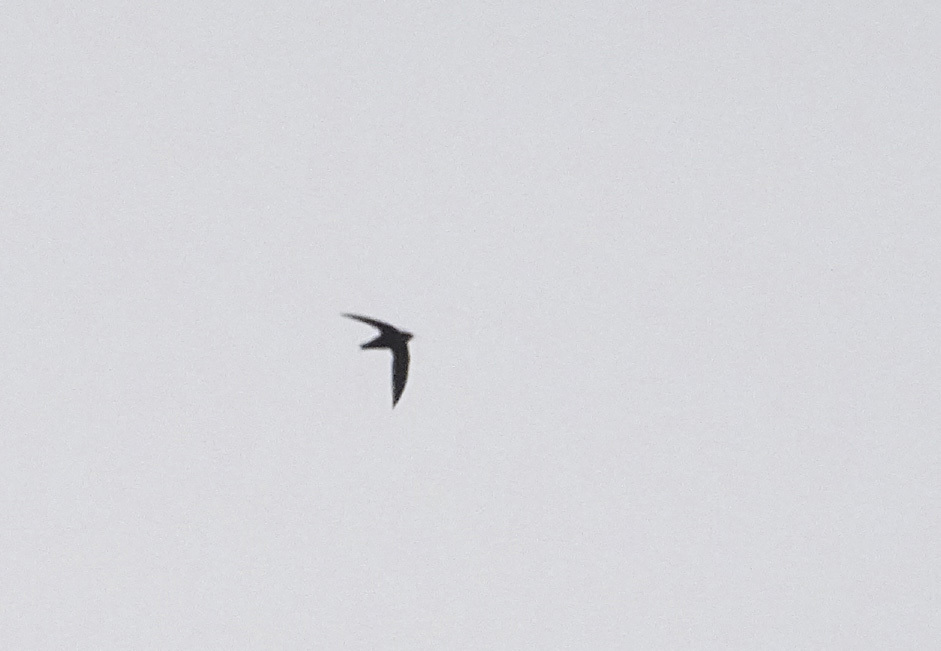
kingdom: Animalia
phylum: Chordata
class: Aves
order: Apodiformes
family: Apodidae
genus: Chaetura
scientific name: Chaetura pelagica
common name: Chimney swift
